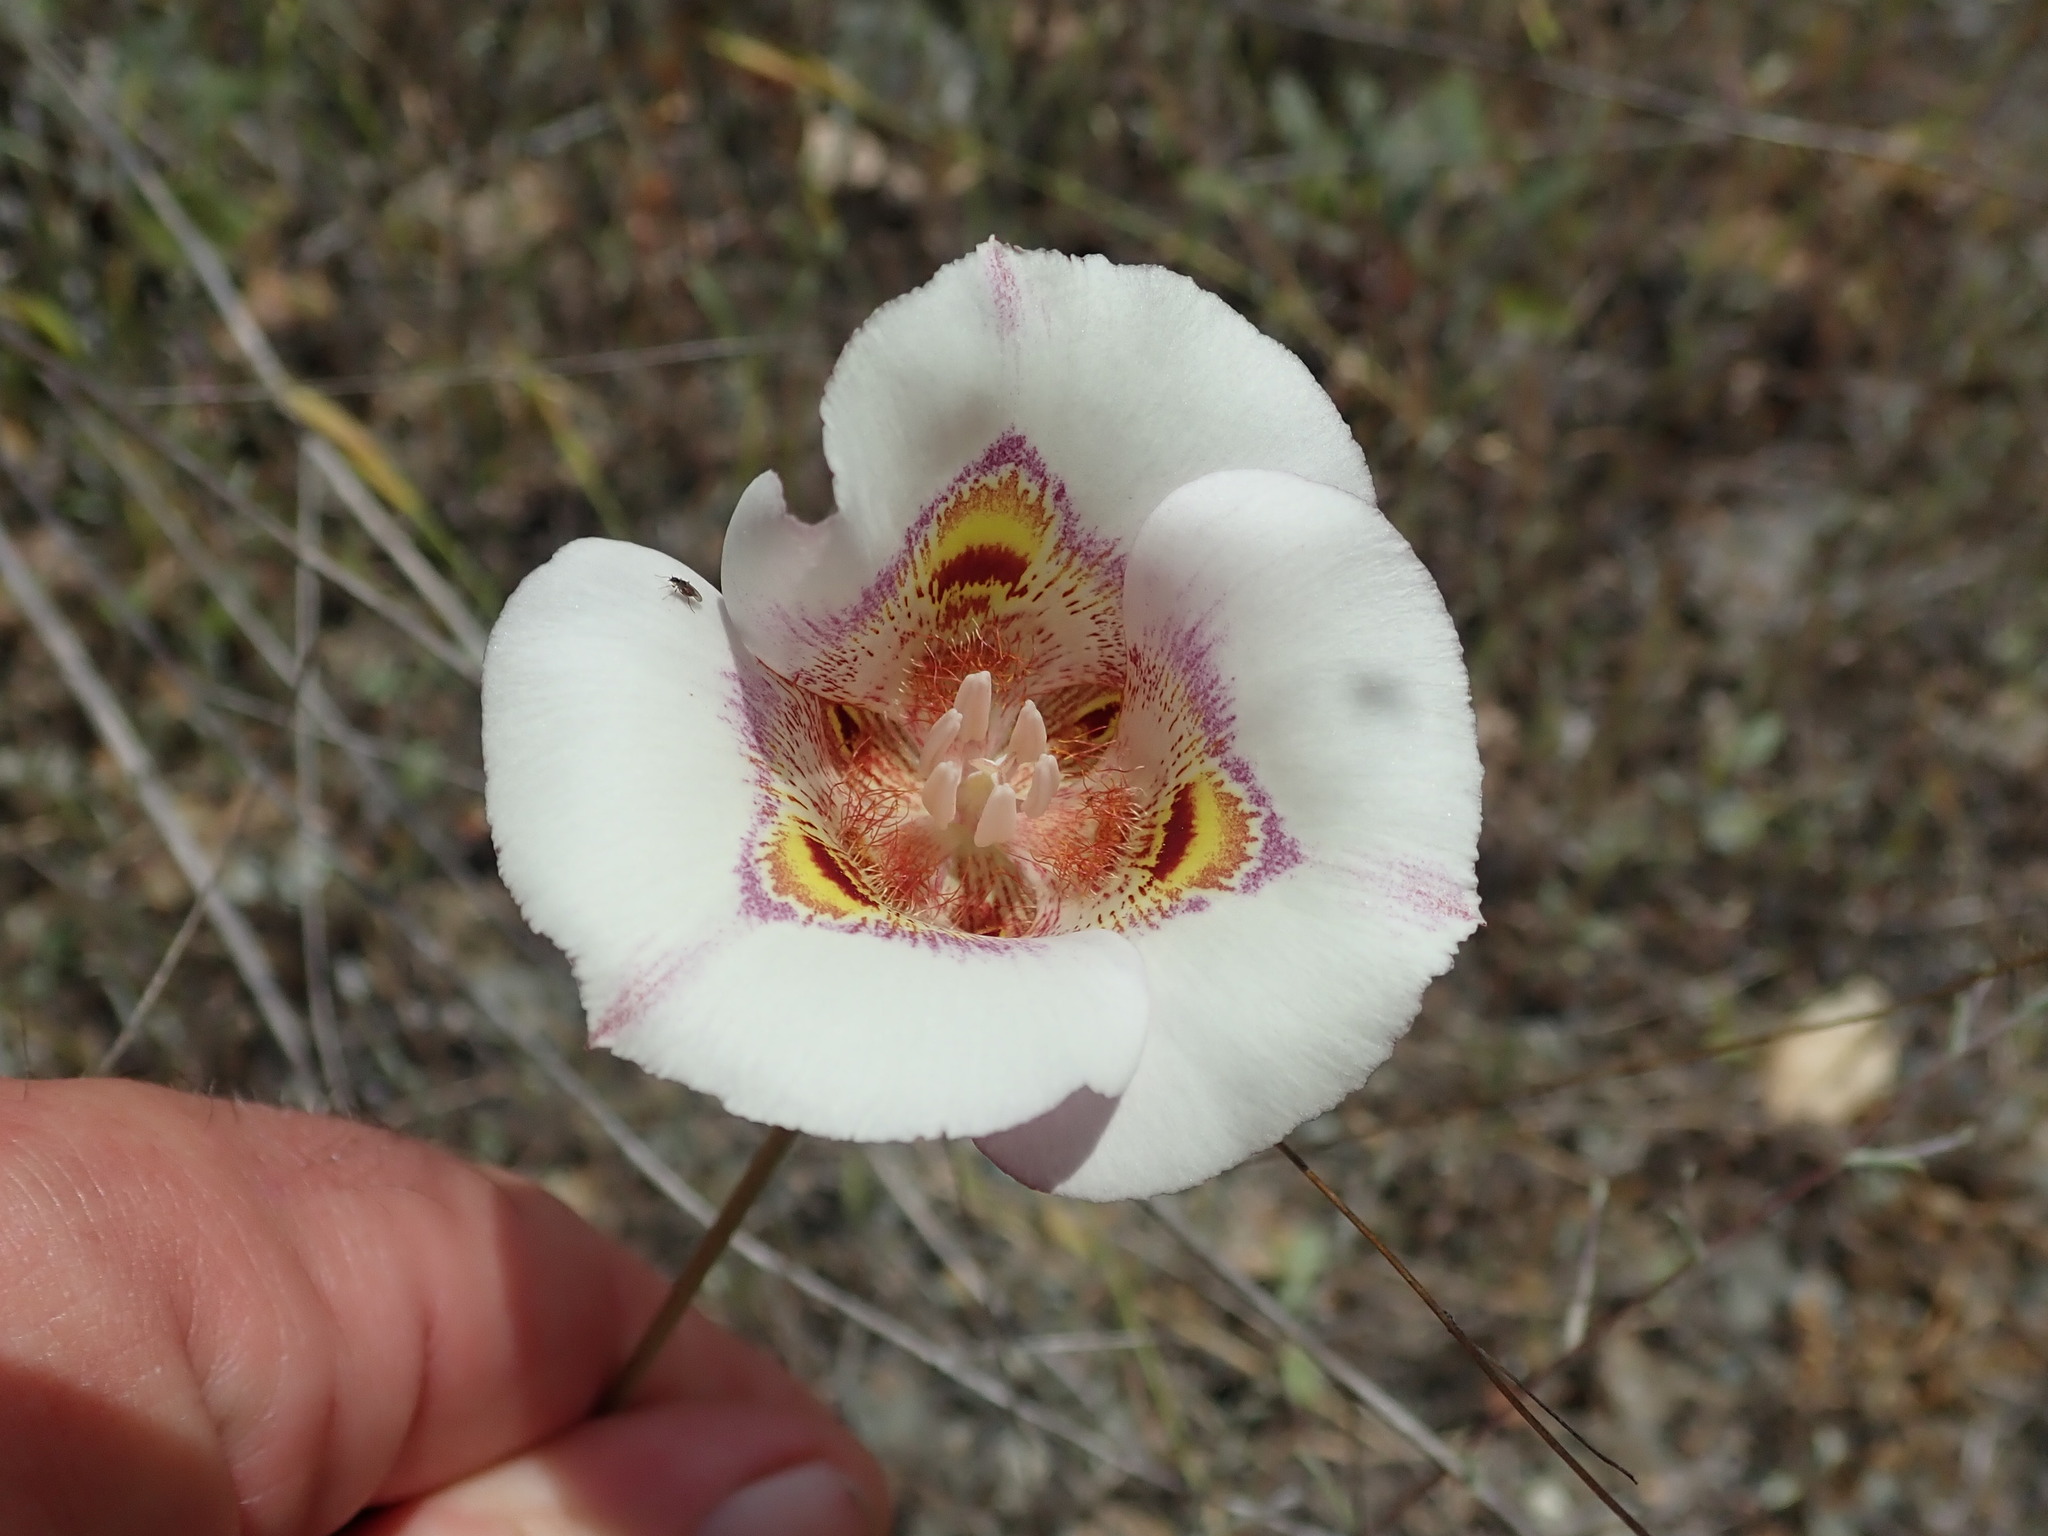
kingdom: Plantae
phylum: Tracheophyta
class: Liliopsida
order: Liliales
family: Liliaceae
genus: Calochortus
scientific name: Calochortus argillosus
